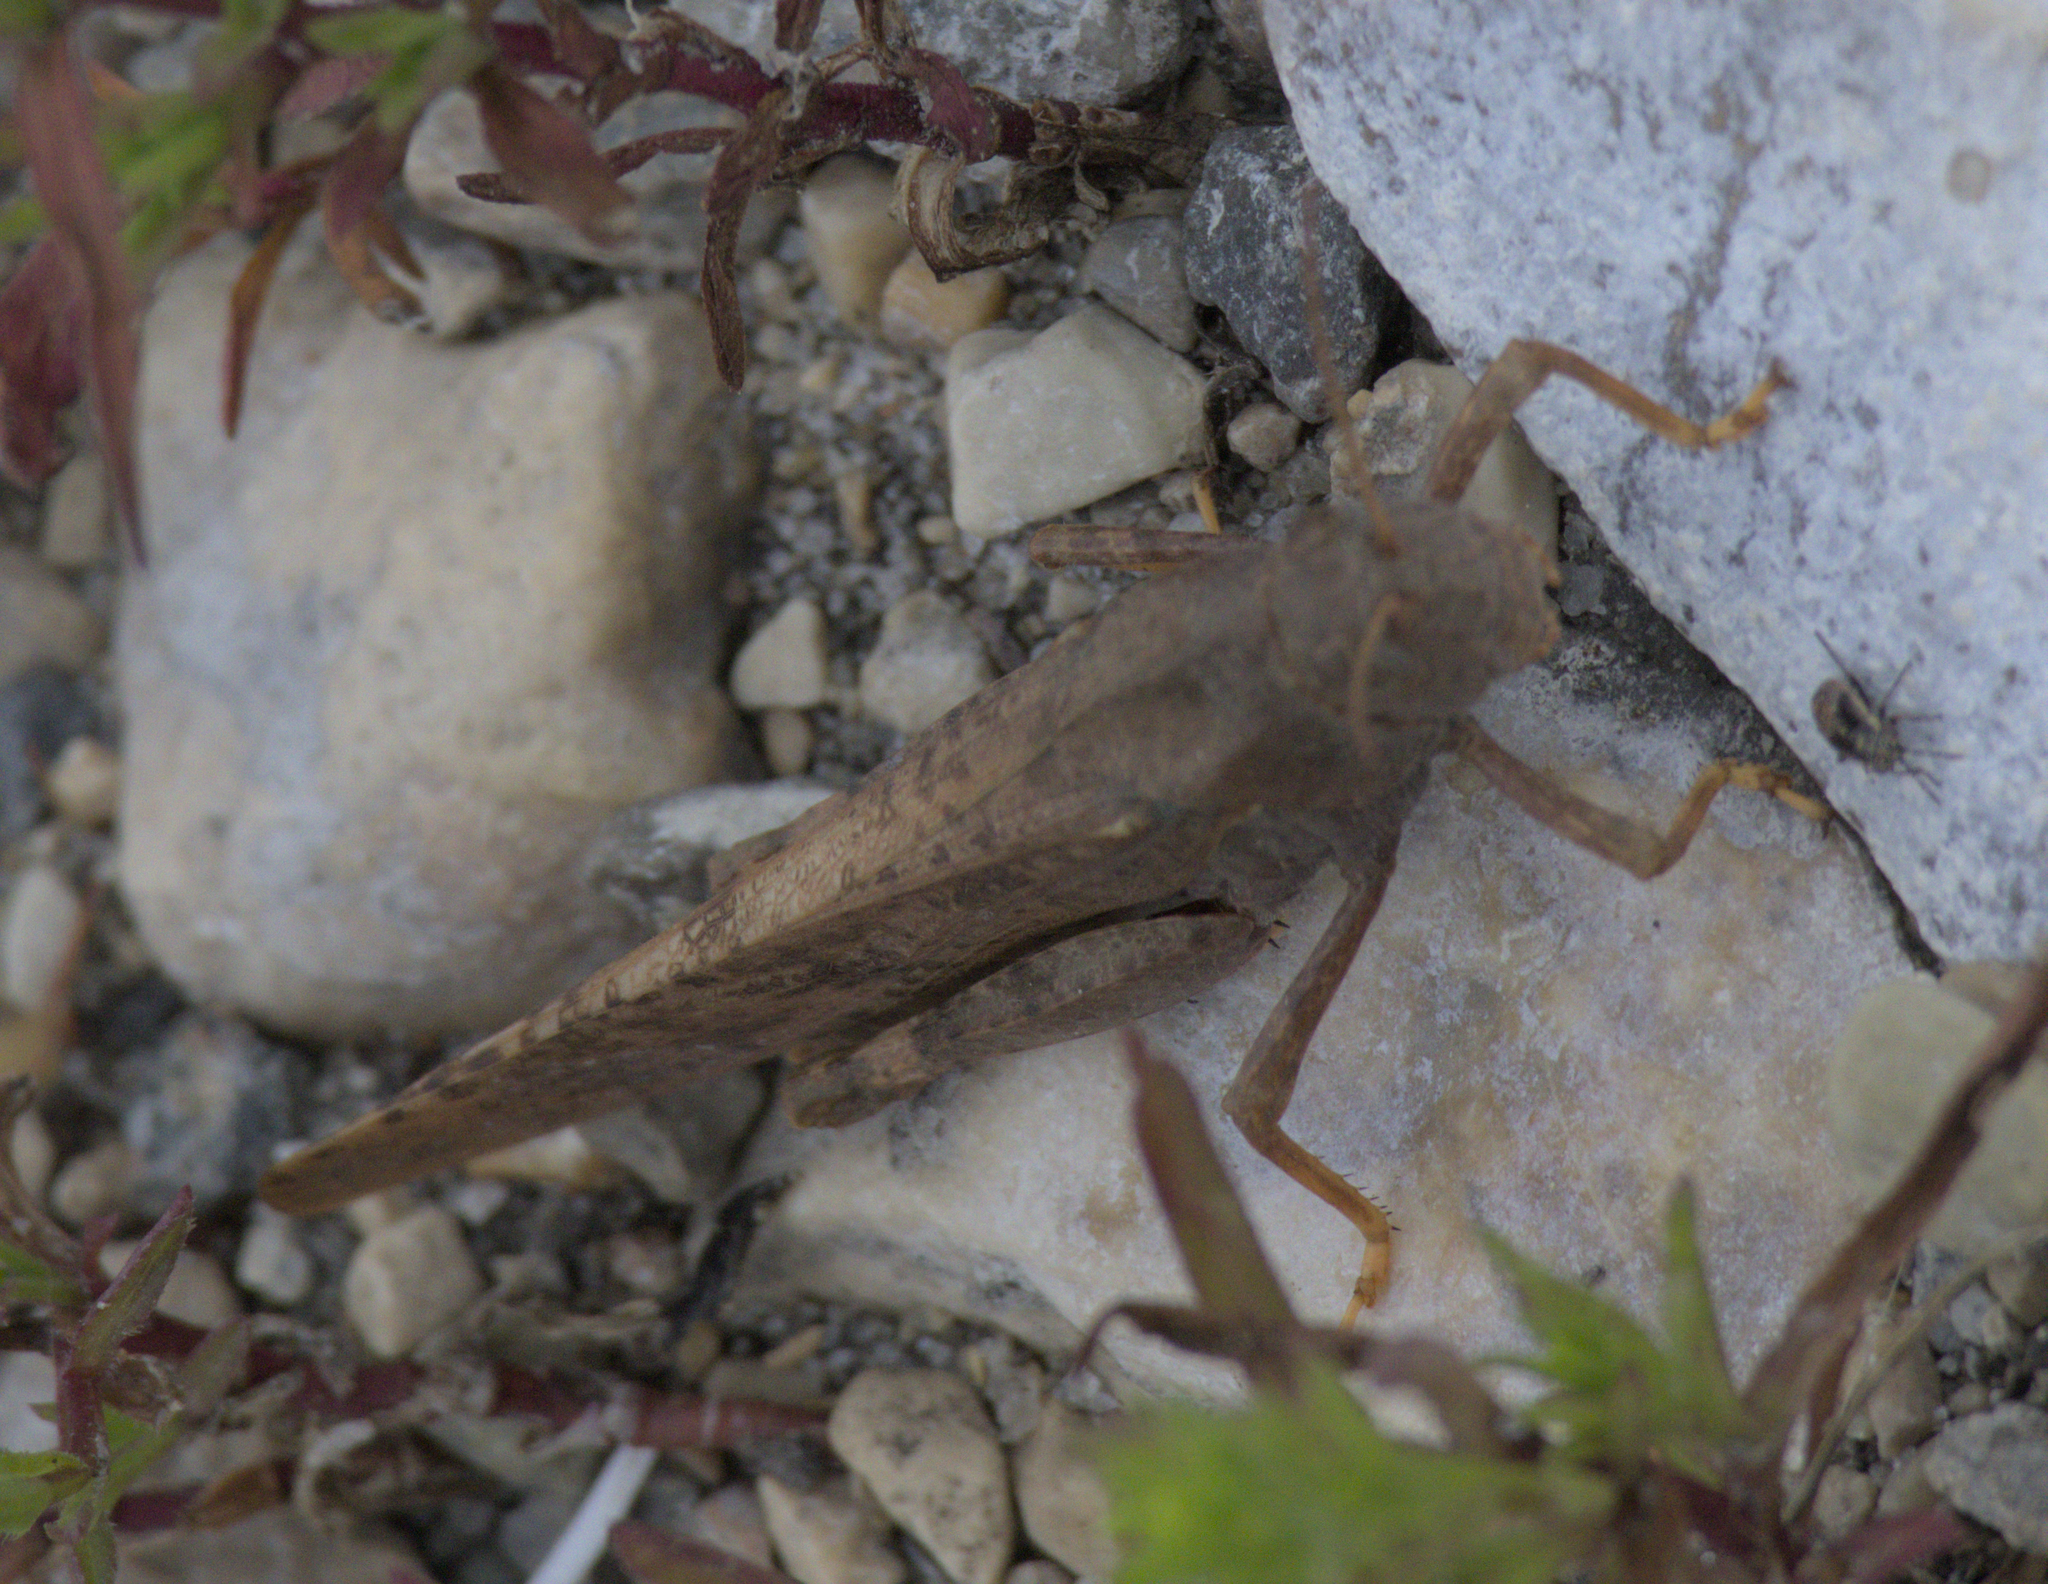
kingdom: Animalia
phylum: Arthropoda
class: Insecta
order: Orthoptera
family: Acrididae
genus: Dissosteira
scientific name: Dissosteira carolina
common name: Carolina grasshopper
